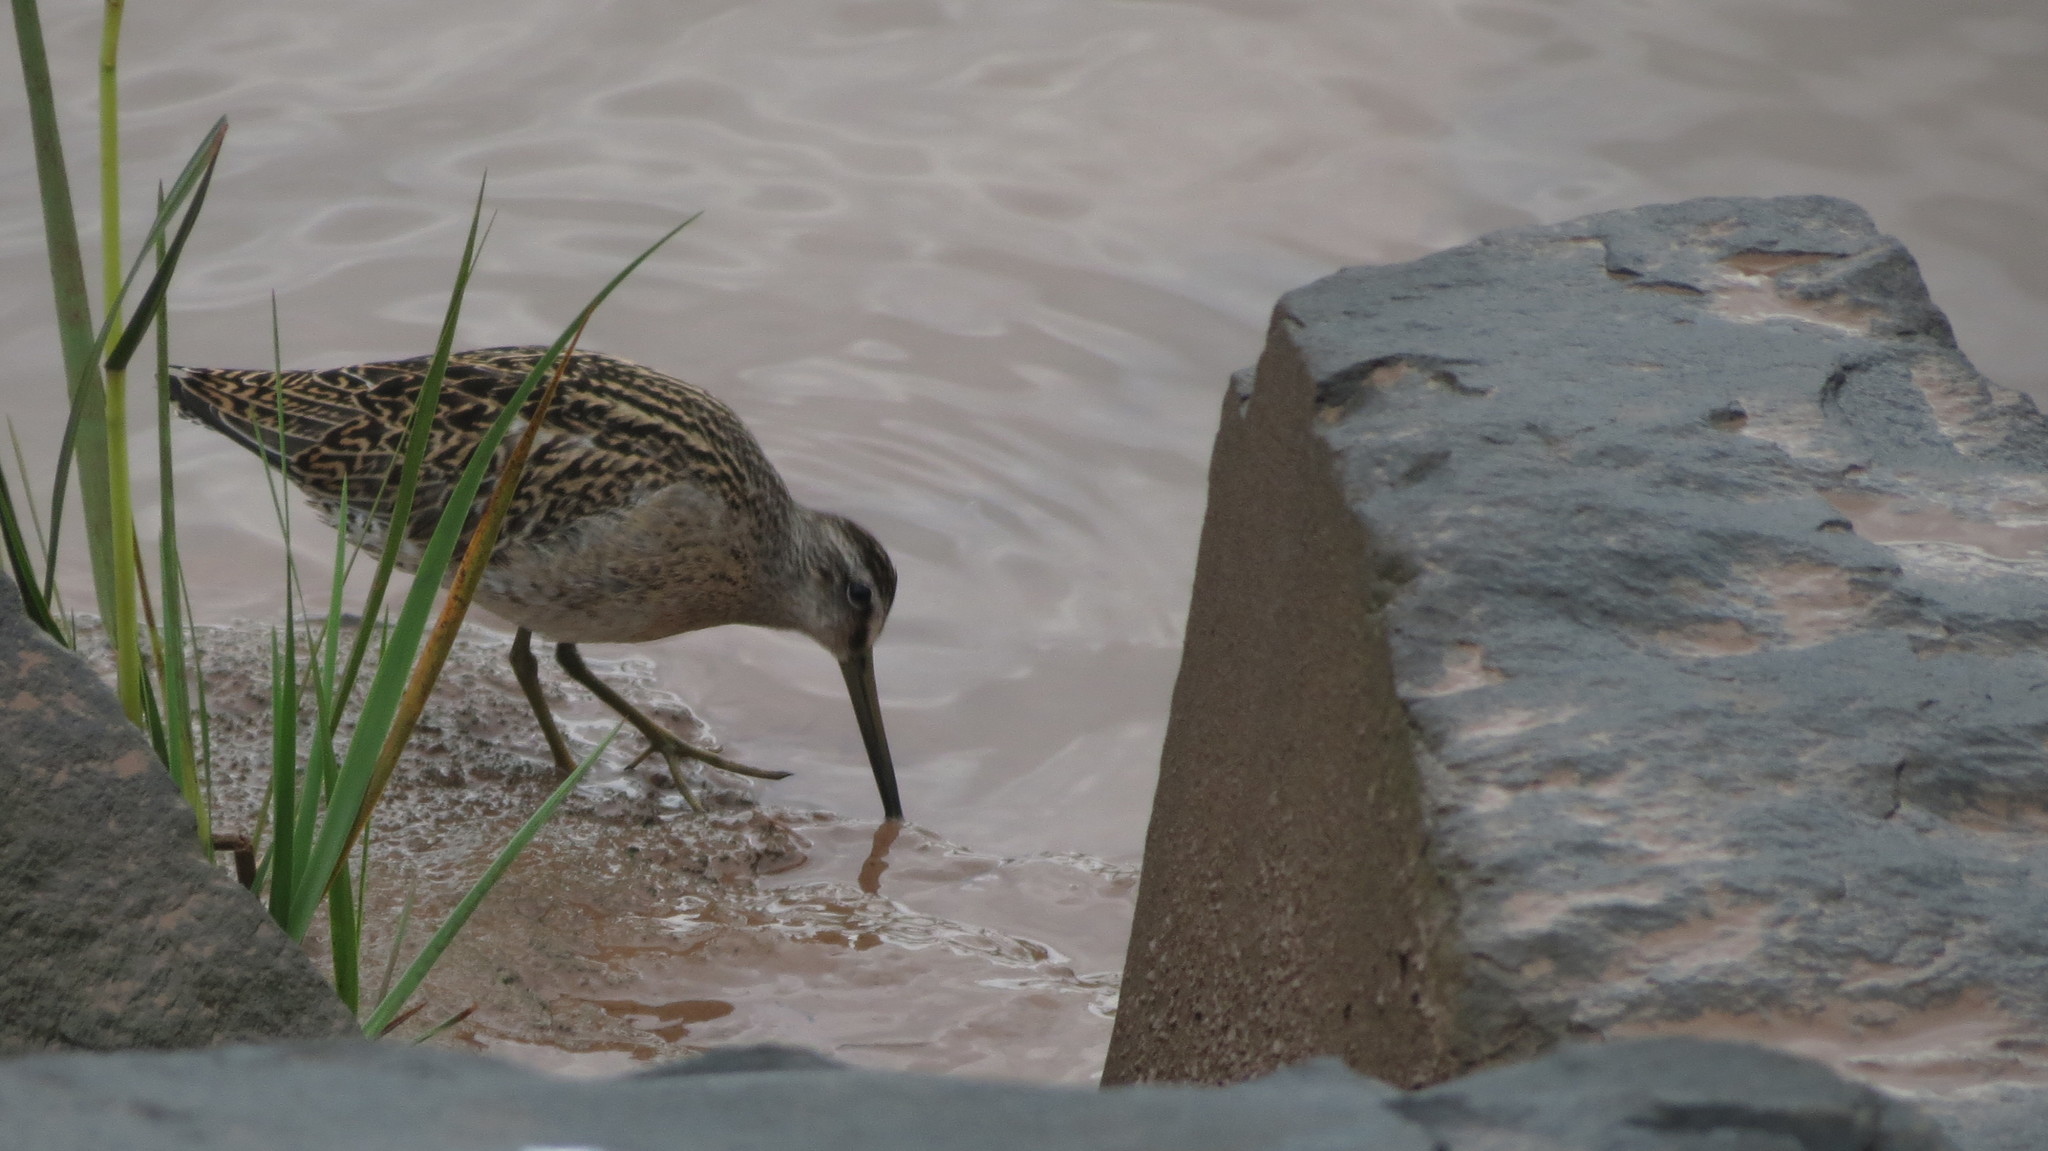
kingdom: Animalia
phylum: Chordata
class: Aves
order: Charadriiformes
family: Scolopacidae
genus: Limnodromus
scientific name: Limnodromus griseus
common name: Short-billed dowitcher
